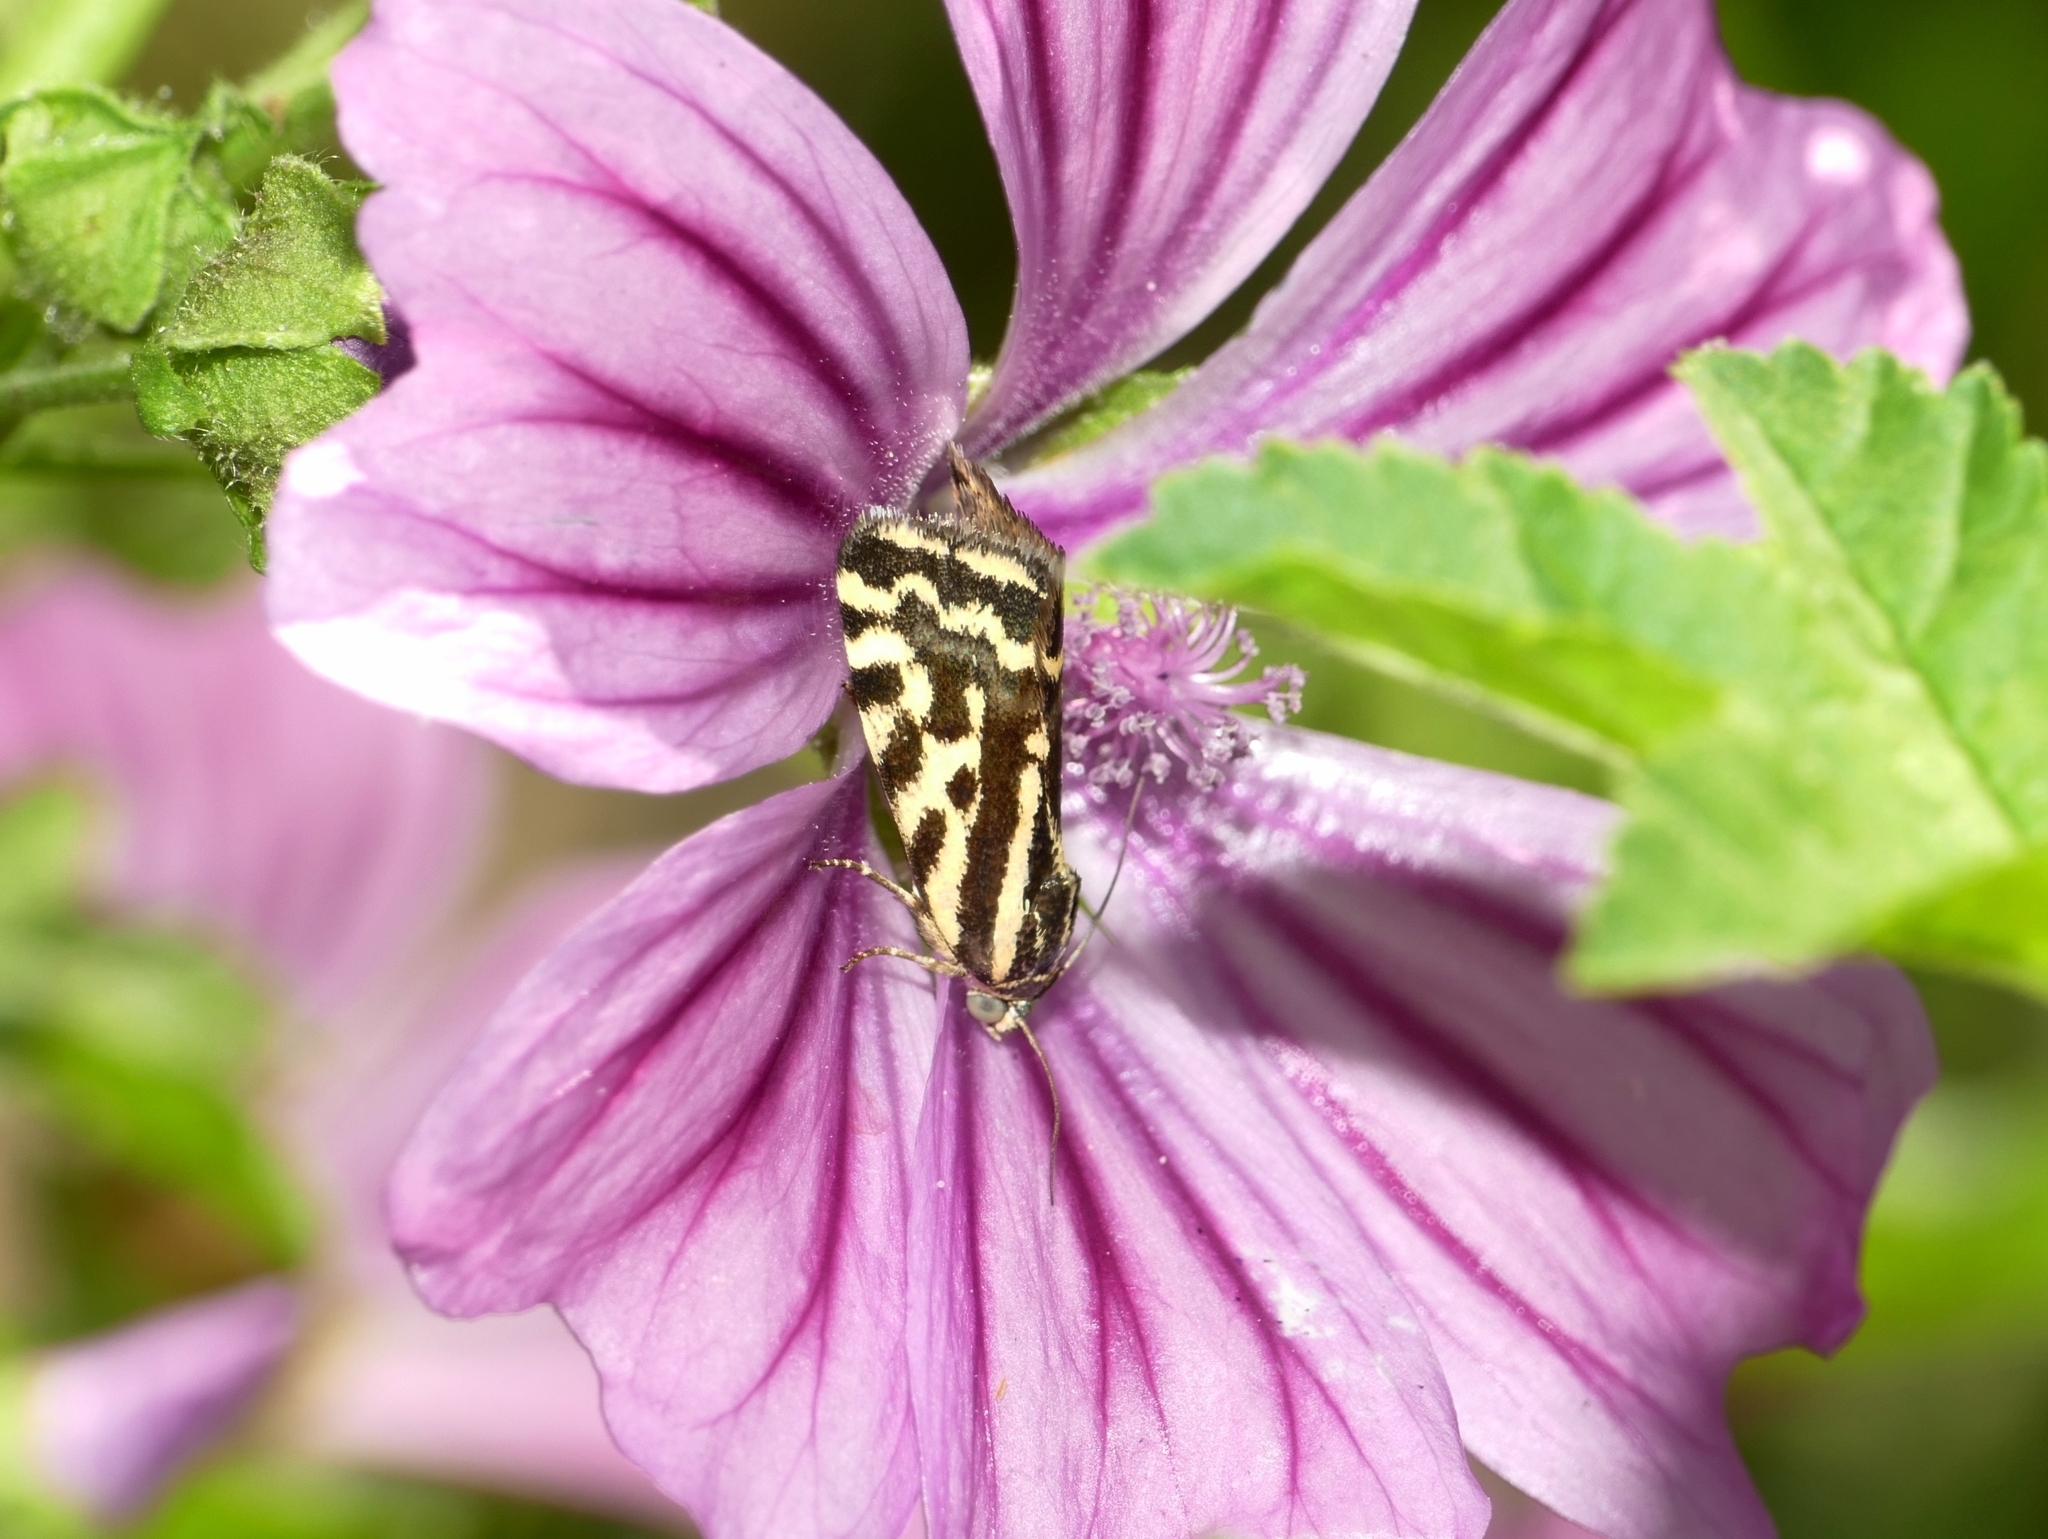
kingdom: Animalia
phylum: Arthropoda
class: Insecta
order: Lepidoptera
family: Noctuidae
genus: Acontia
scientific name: Acontia trabealis
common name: Spotted sulphur
